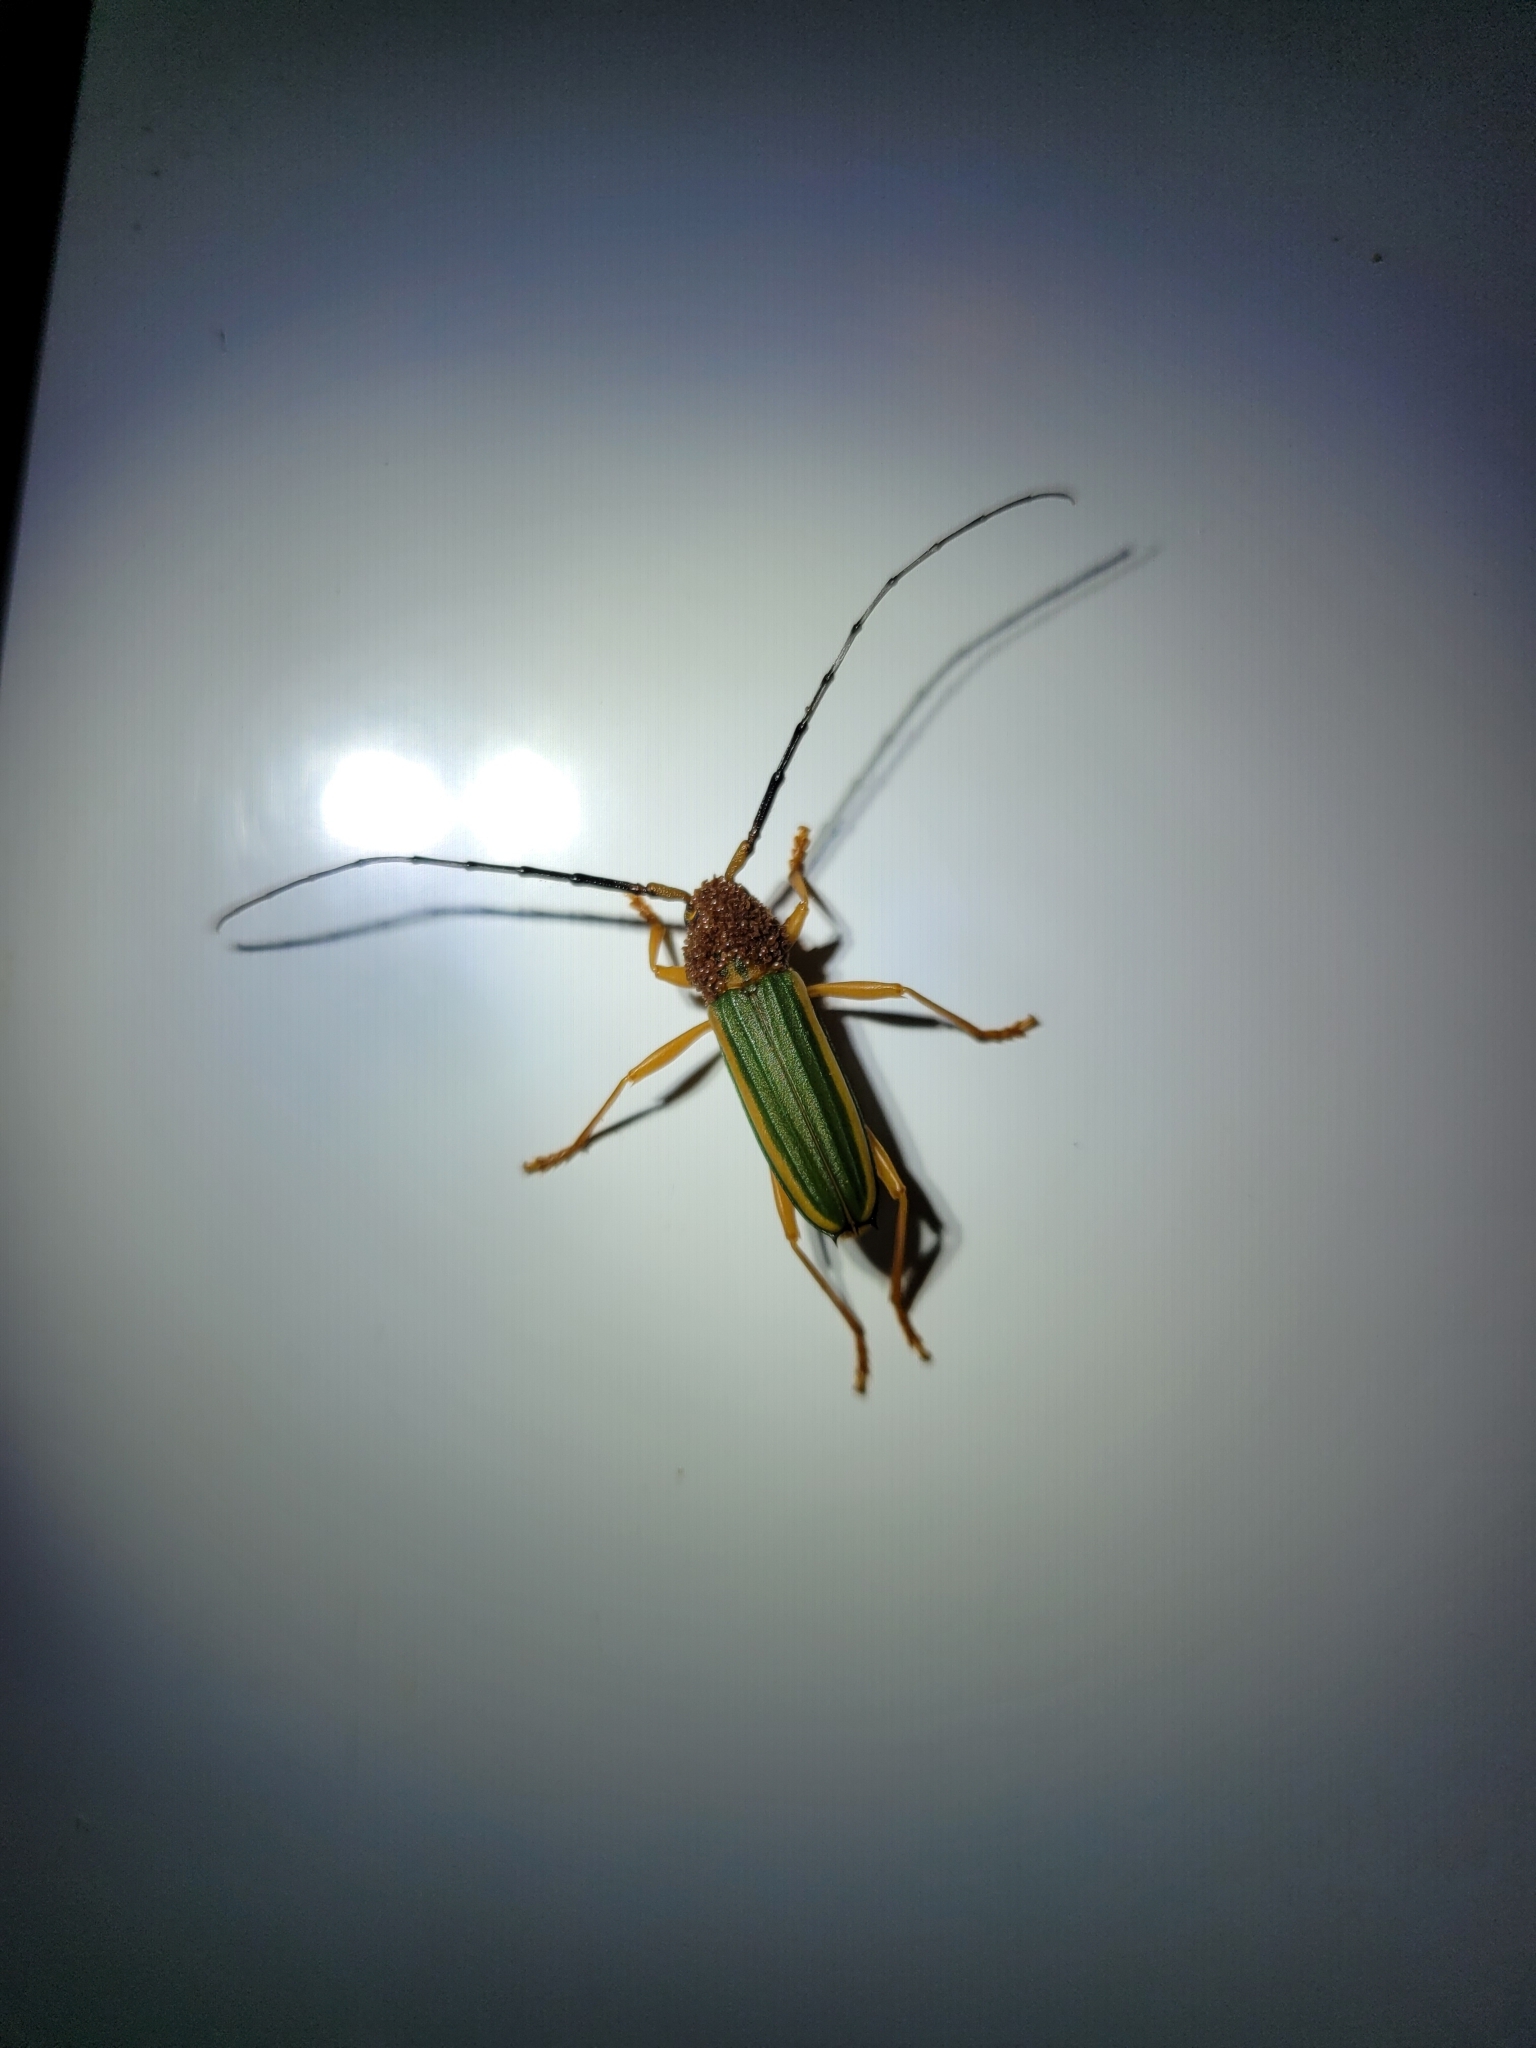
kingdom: Animalia
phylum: Arthropoda
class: Insecta
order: Coleoptera
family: Cerambycidae
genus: Chlorida
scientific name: Chlorida festiva
